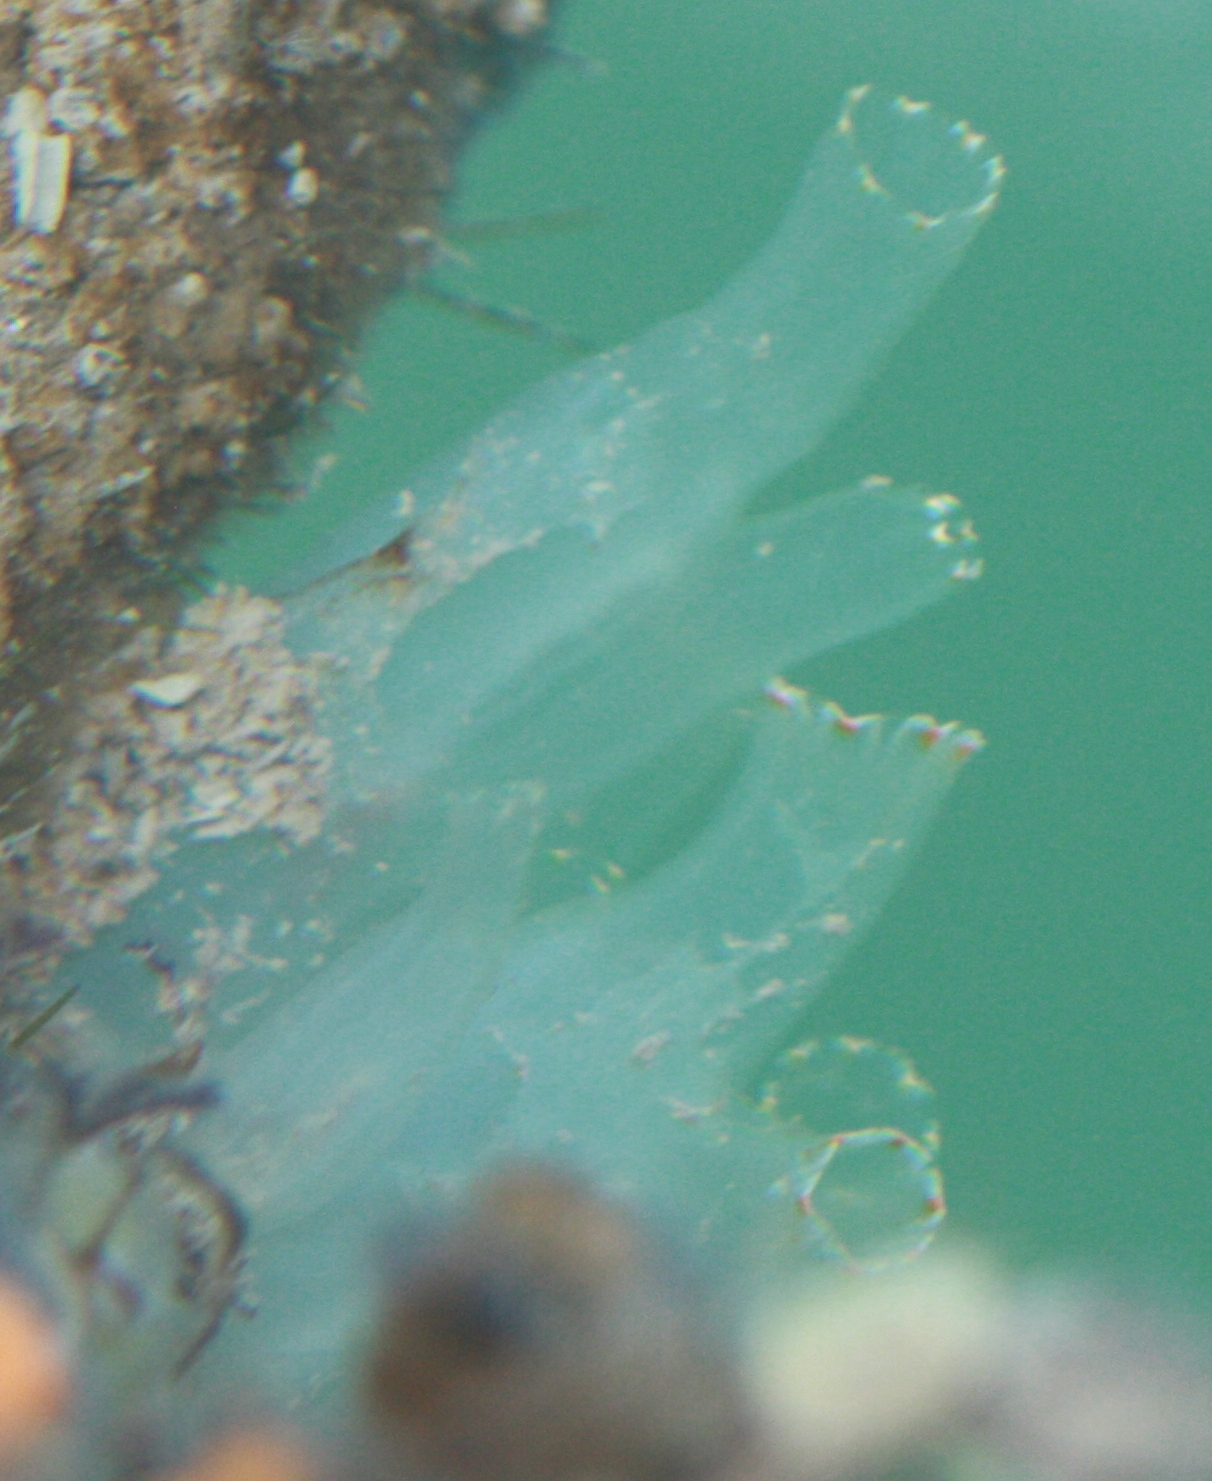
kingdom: Animalia
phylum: Chordata
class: Ascidiacea
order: Phlebobranchia
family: Cionidae
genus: Ciona
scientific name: Ciona savignyi
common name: Tunicate
